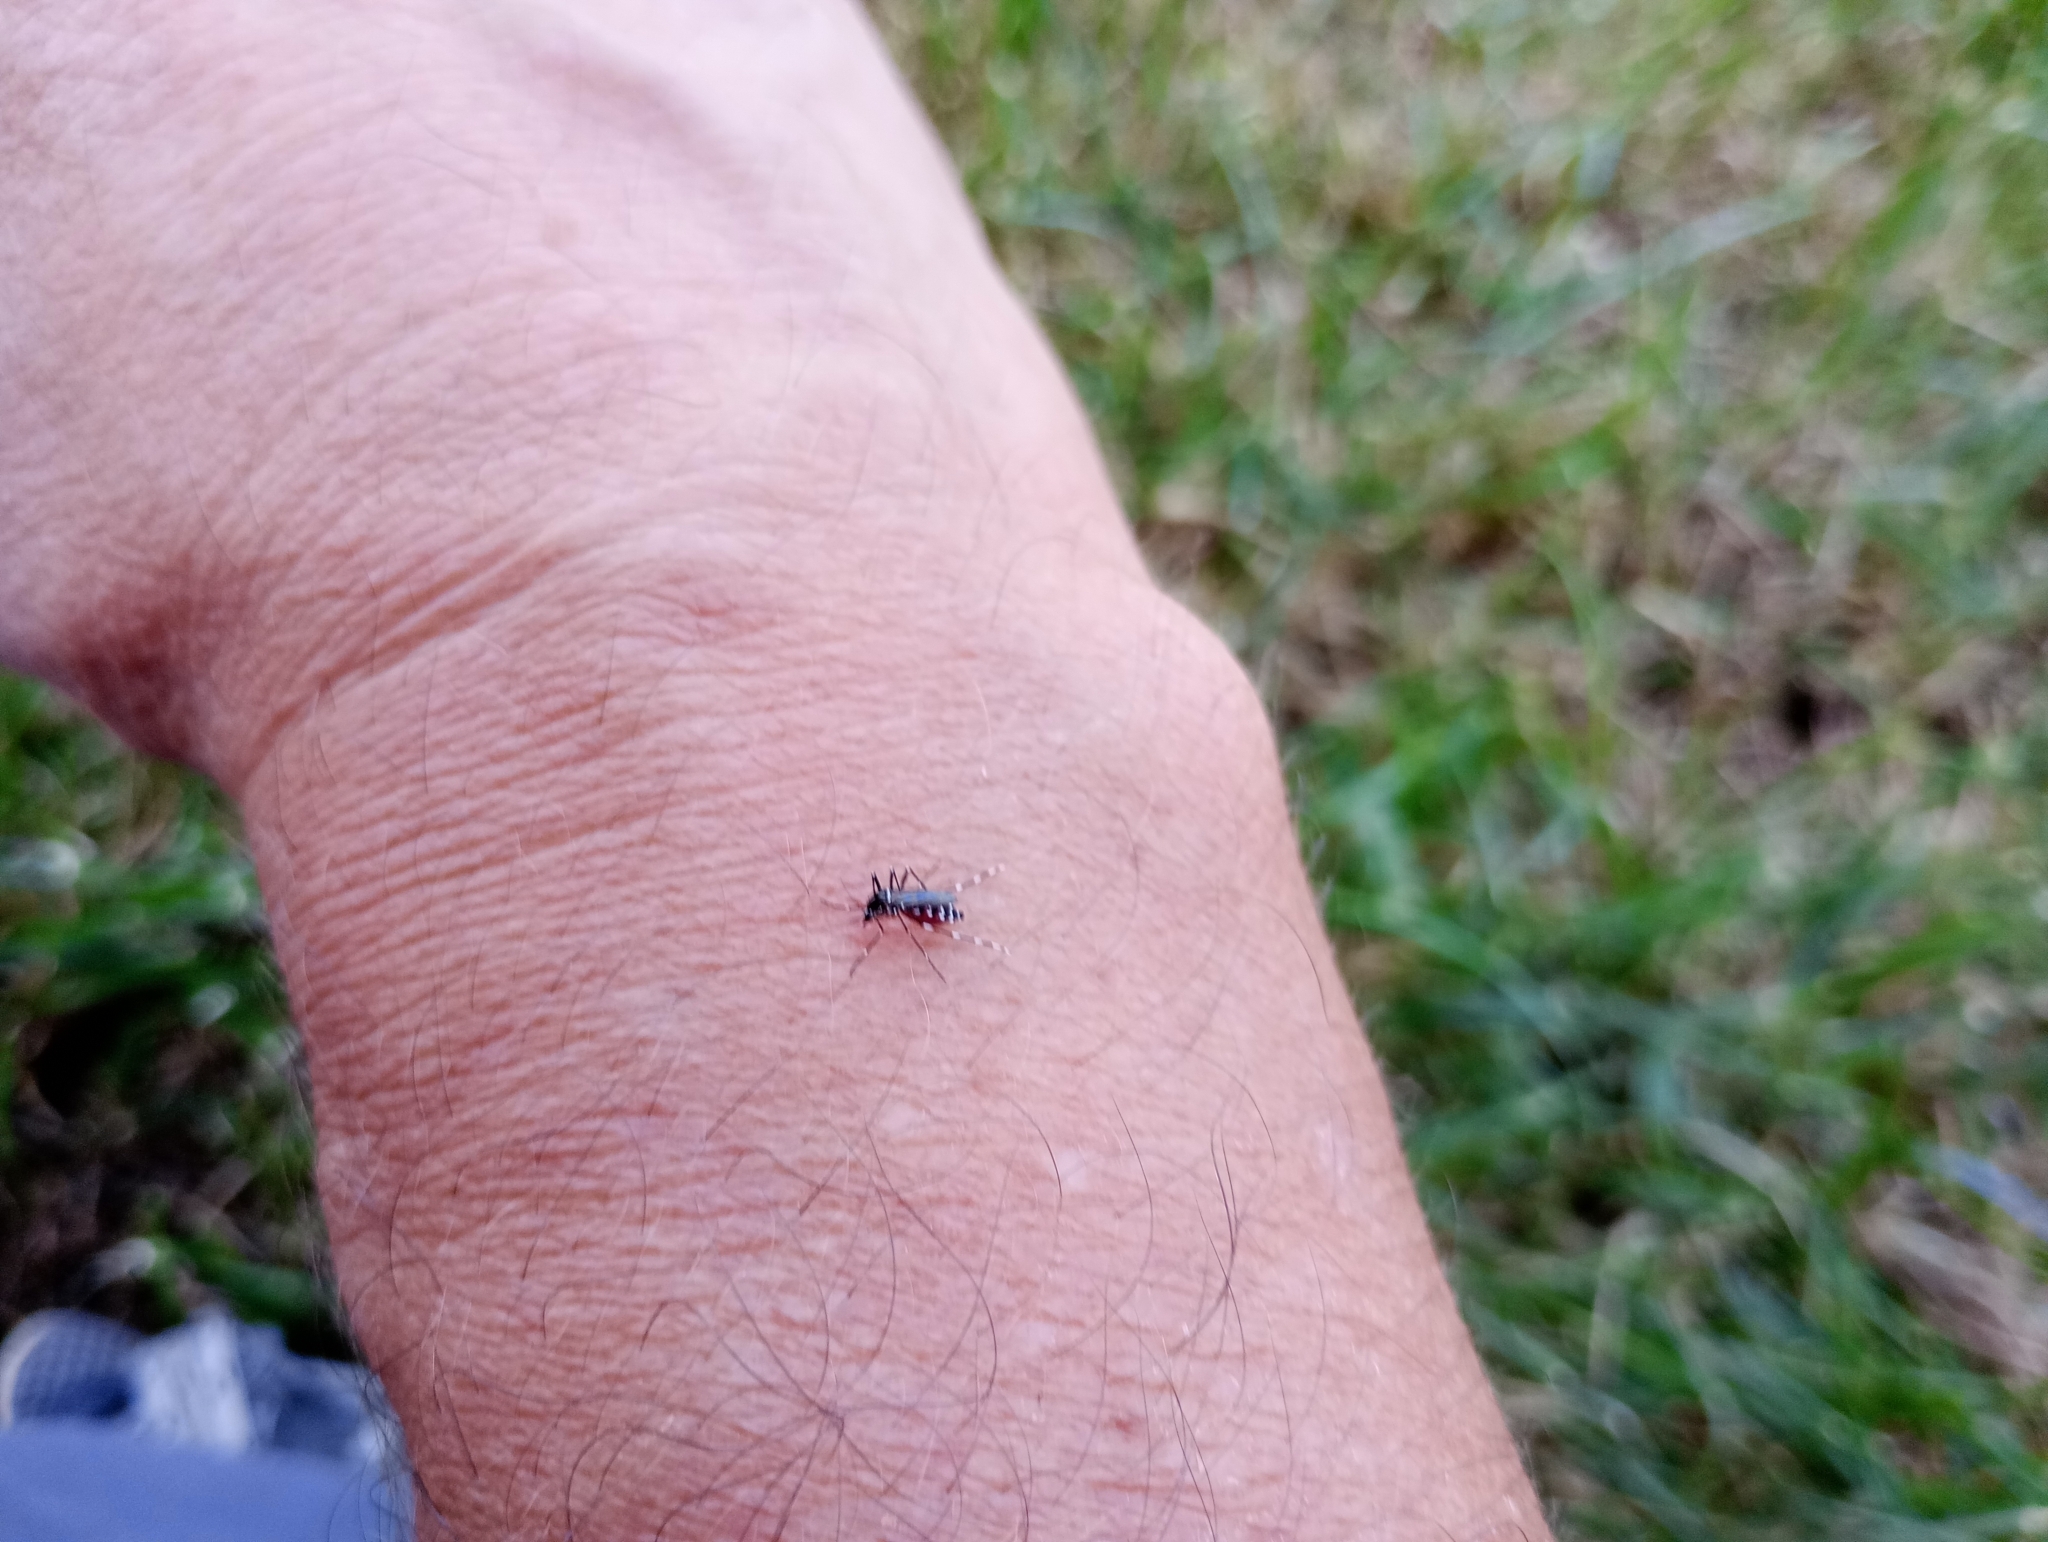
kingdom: Animalia
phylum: Arthropoda
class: Insecta
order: Diptera
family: Culicidae
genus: Aedes
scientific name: Aedes albopictus
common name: Tiger mosquito
